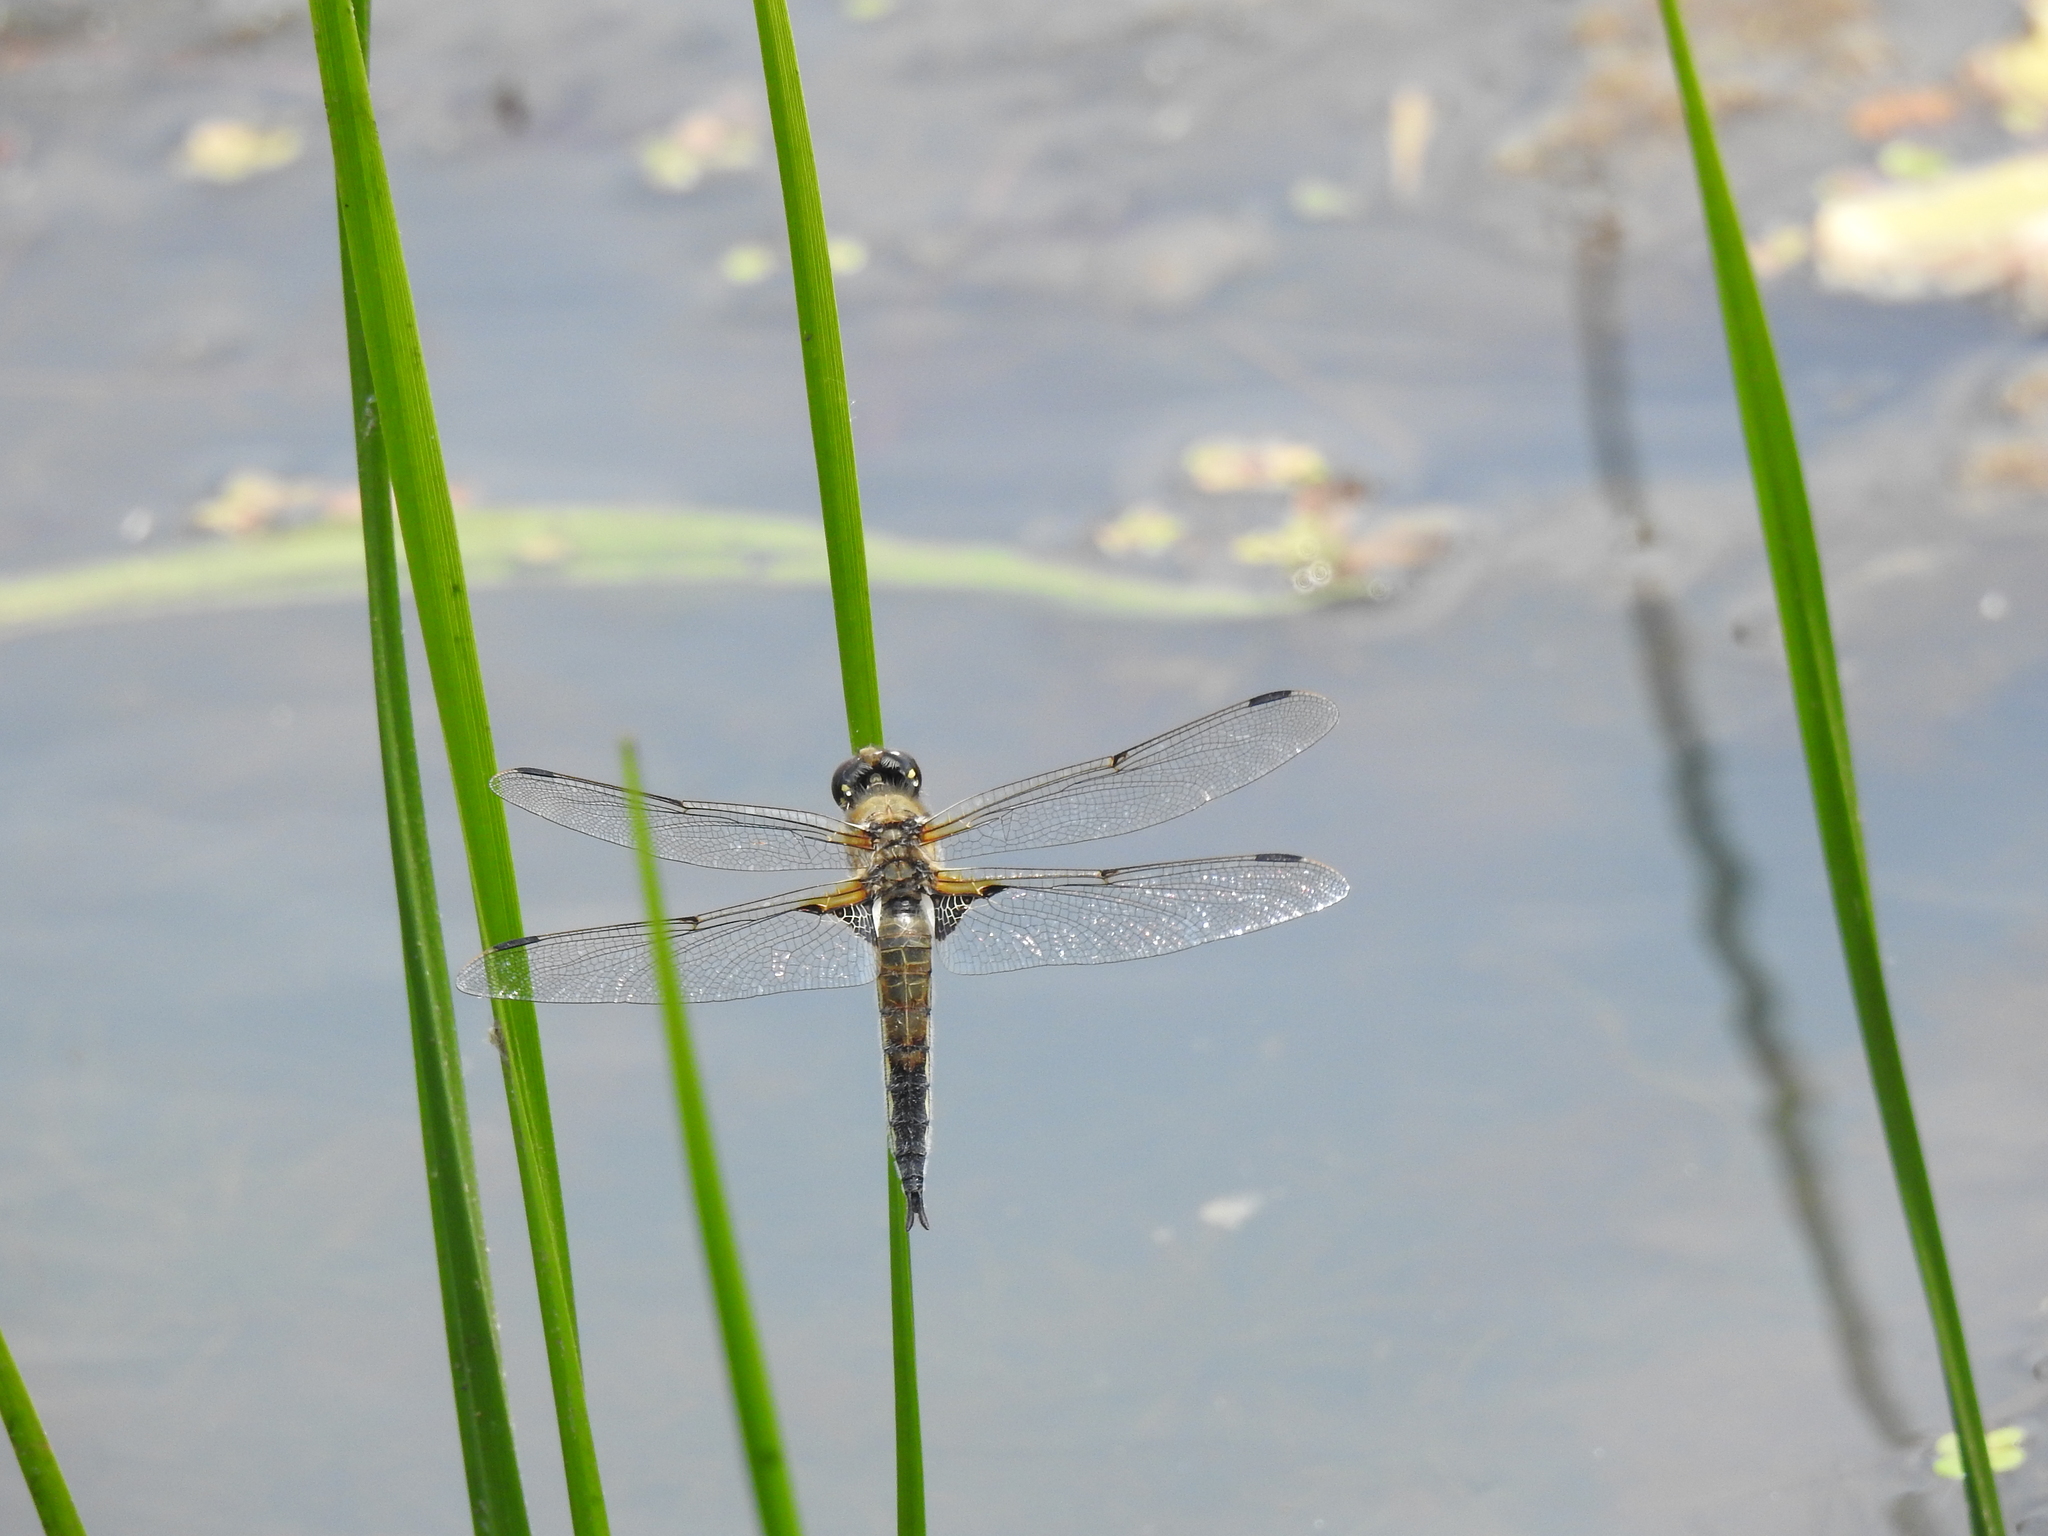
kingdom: Animalia
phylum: Arthropoda
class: Insecta
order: Odonata
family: Libellulidae
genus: Libellula
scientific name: Libellula quadrimaculata
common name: Four-spotted chaser
